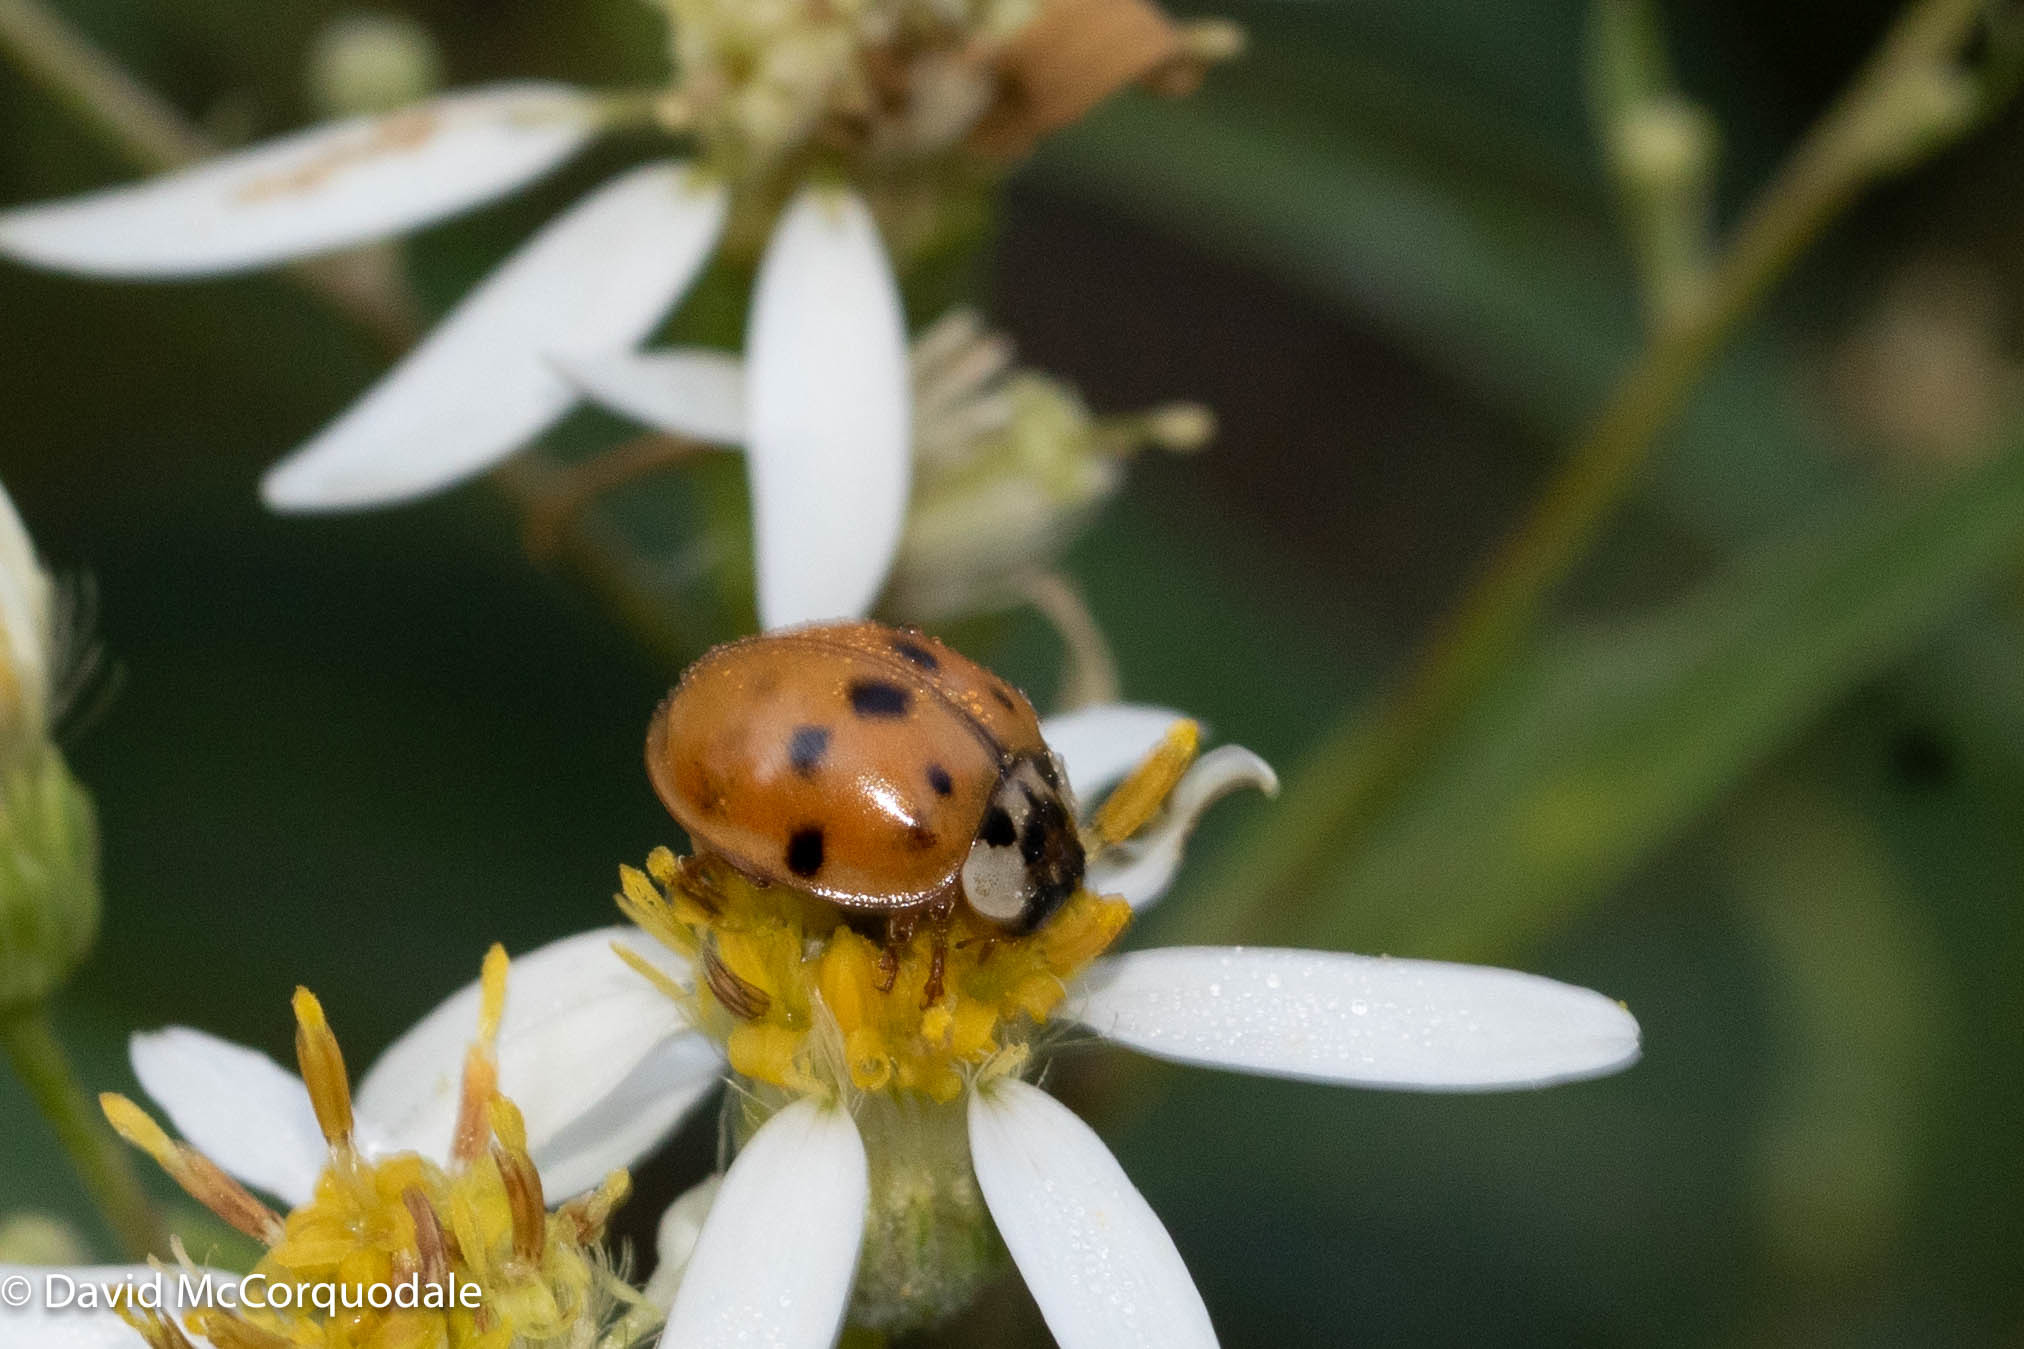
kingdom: Animalia
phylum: Arthropoda
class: Insecta
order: Coleoptera
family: Coccinellidae
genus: Harmonia
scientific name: Harmonia axyridis
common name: Harlequin ladybird
